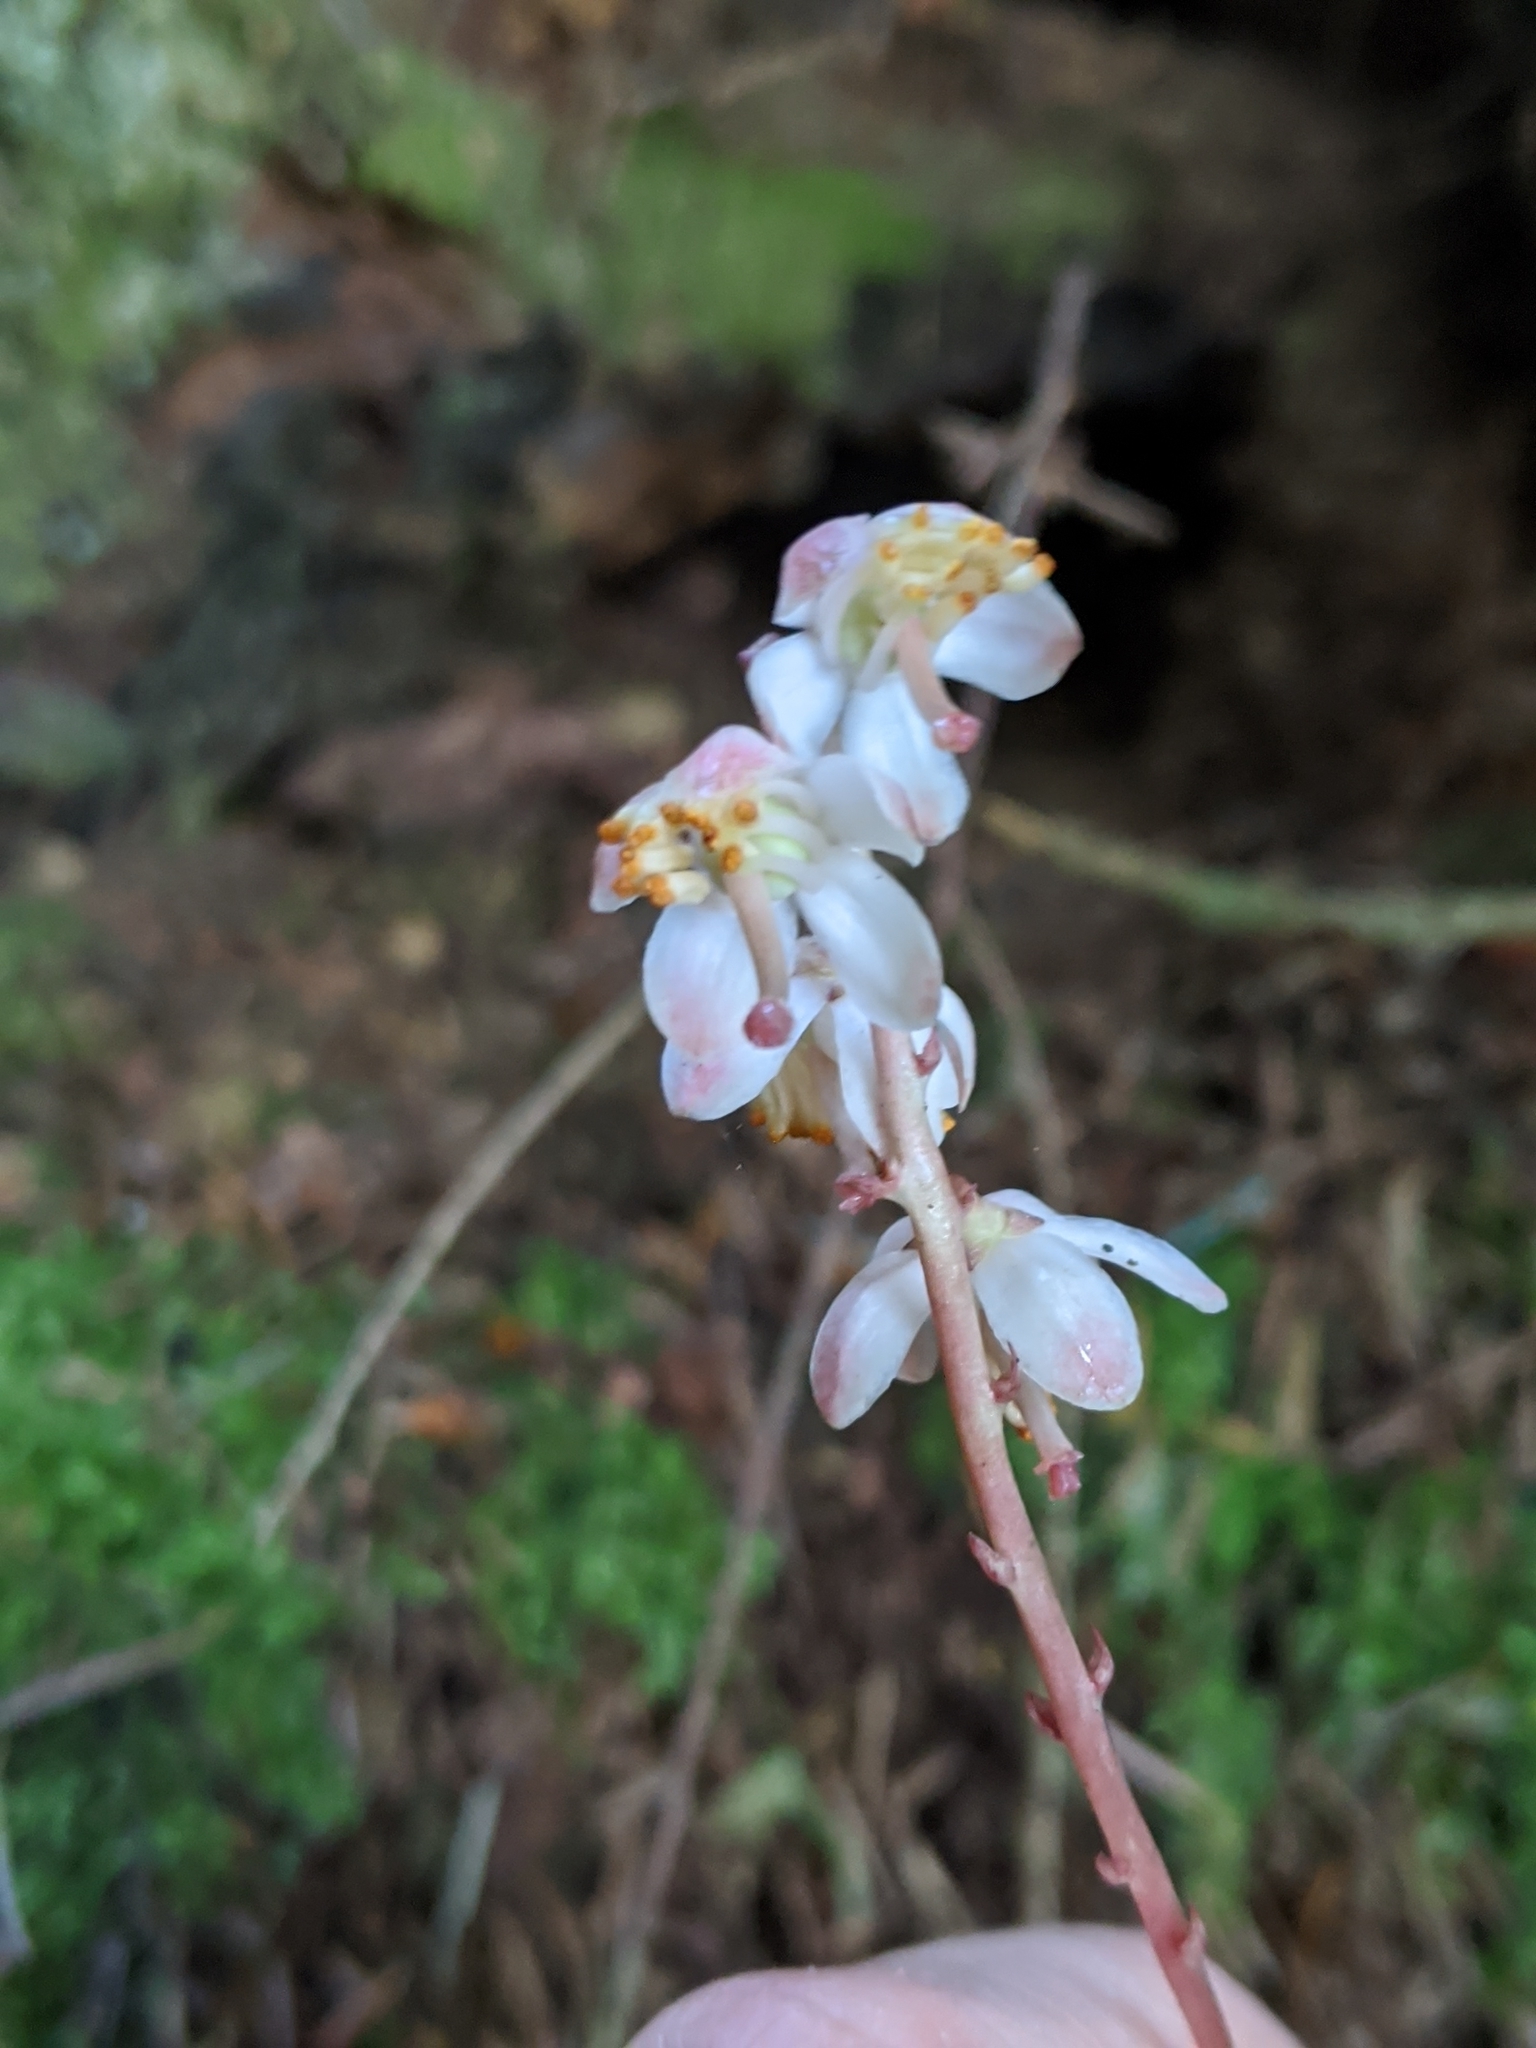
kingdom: Plantae
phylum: Tracheophyta
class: Magnoliopsida
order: Ericales
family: Ericaceae
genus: Pyrola
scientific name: Pyrola aphylla
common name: Leafless wintergreen
